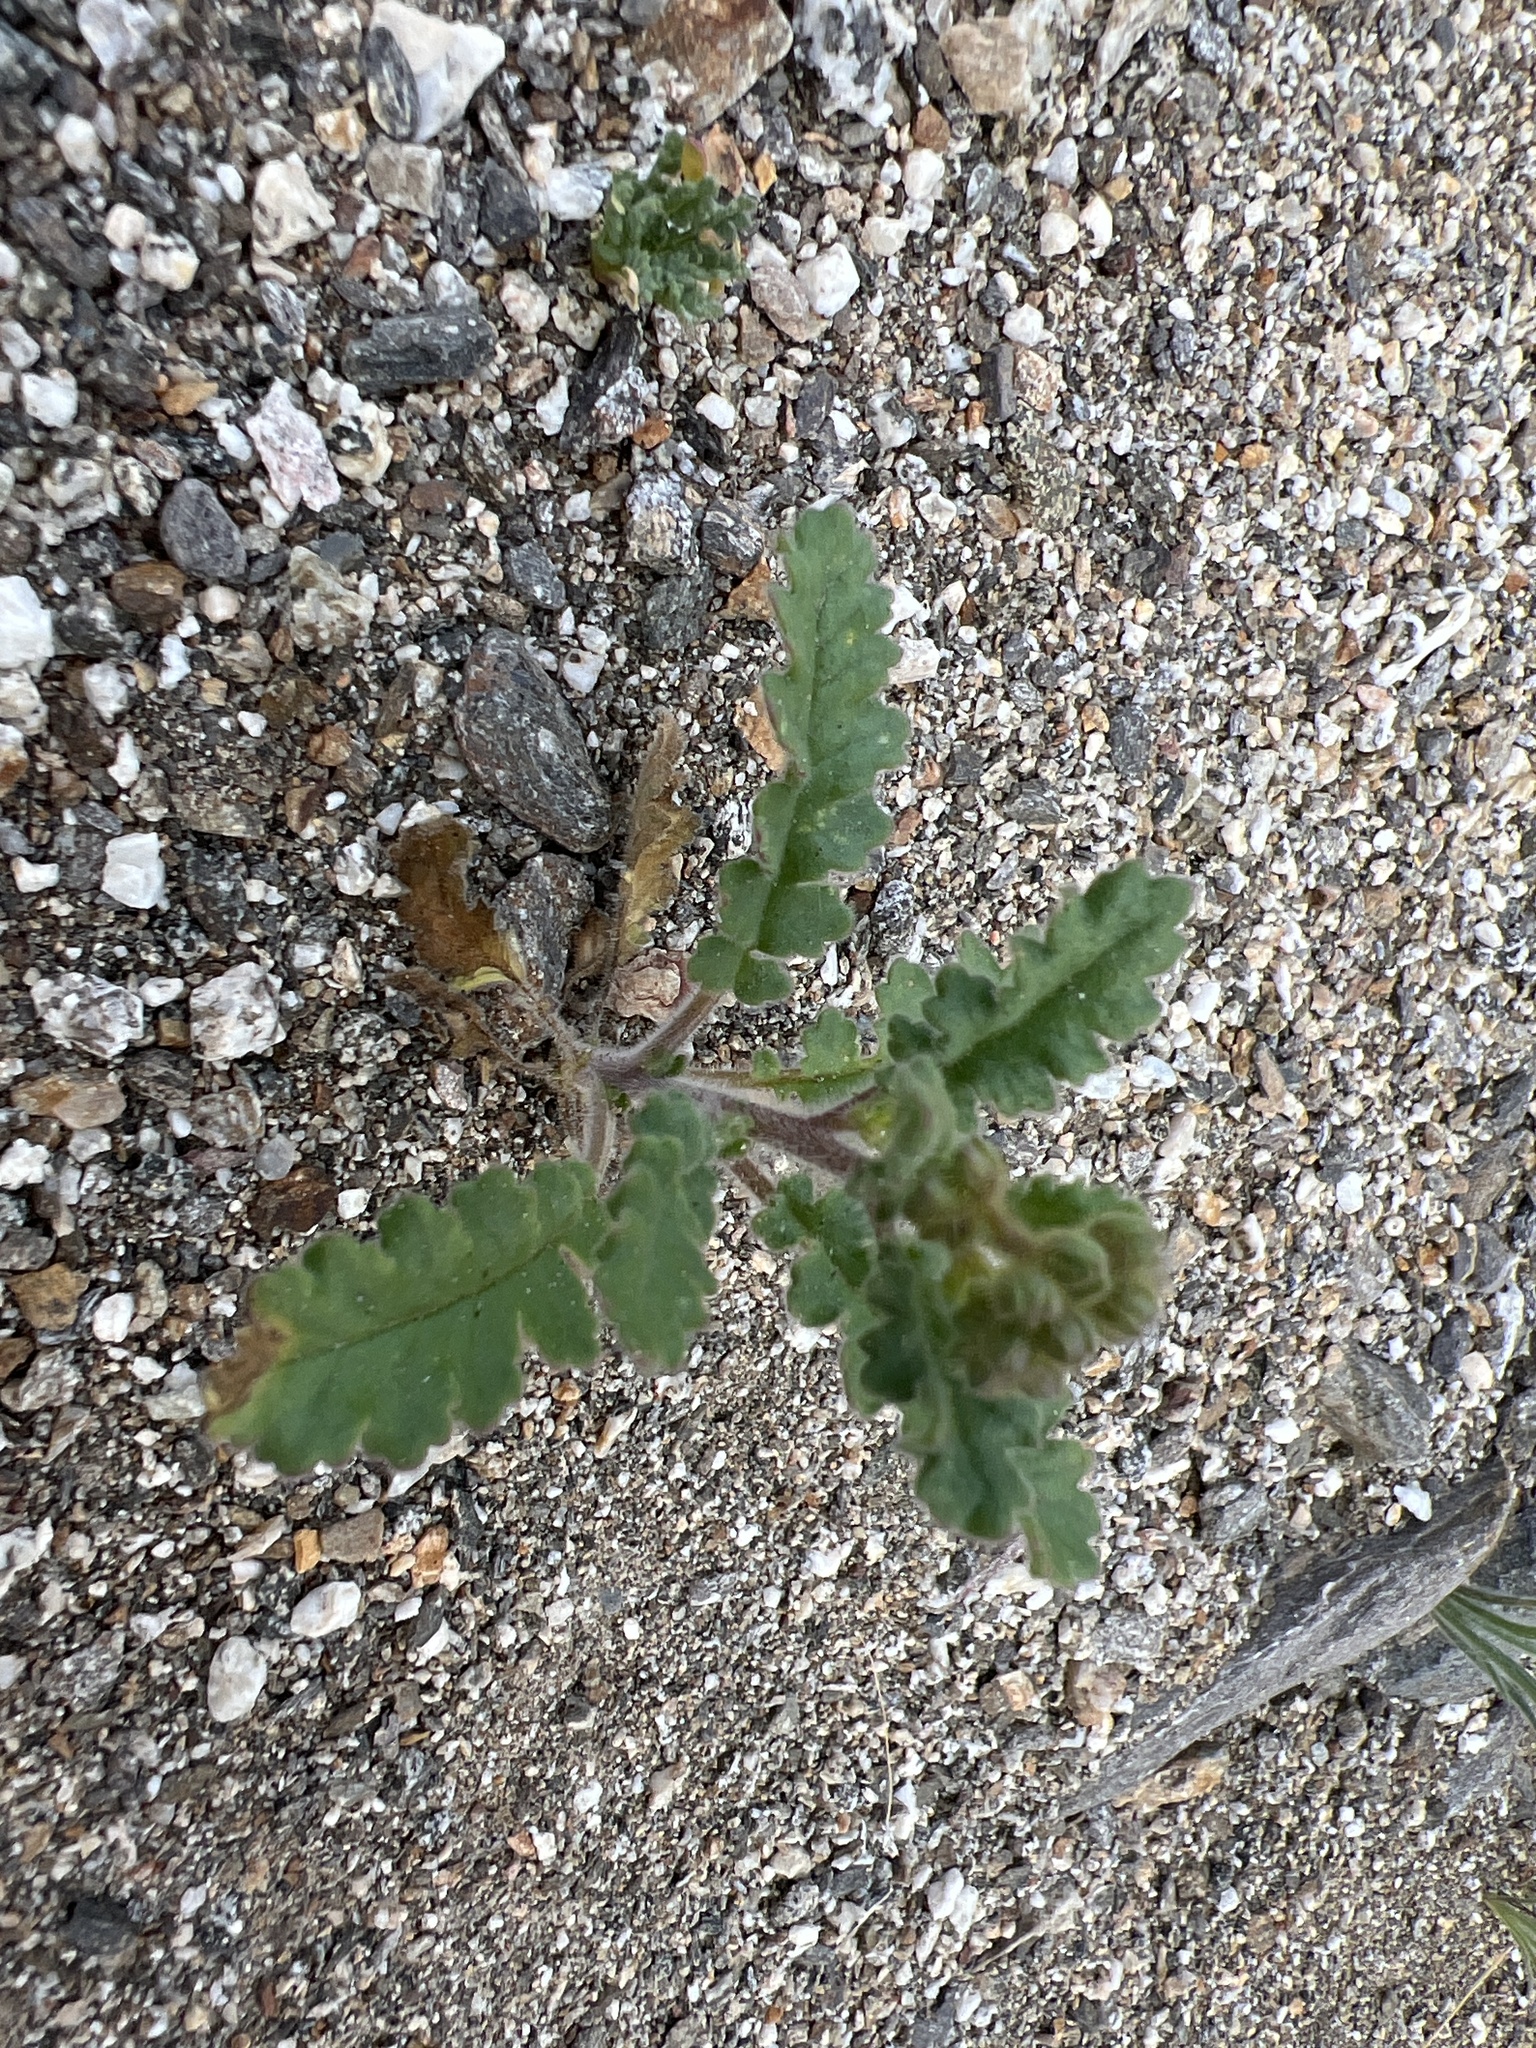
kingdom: Plantae
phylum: Tracheophyta
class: Magnoliopsida
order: Boraginales
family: Hydrophyllaceae
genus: Phacelia
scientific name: Phacelia crenulata
